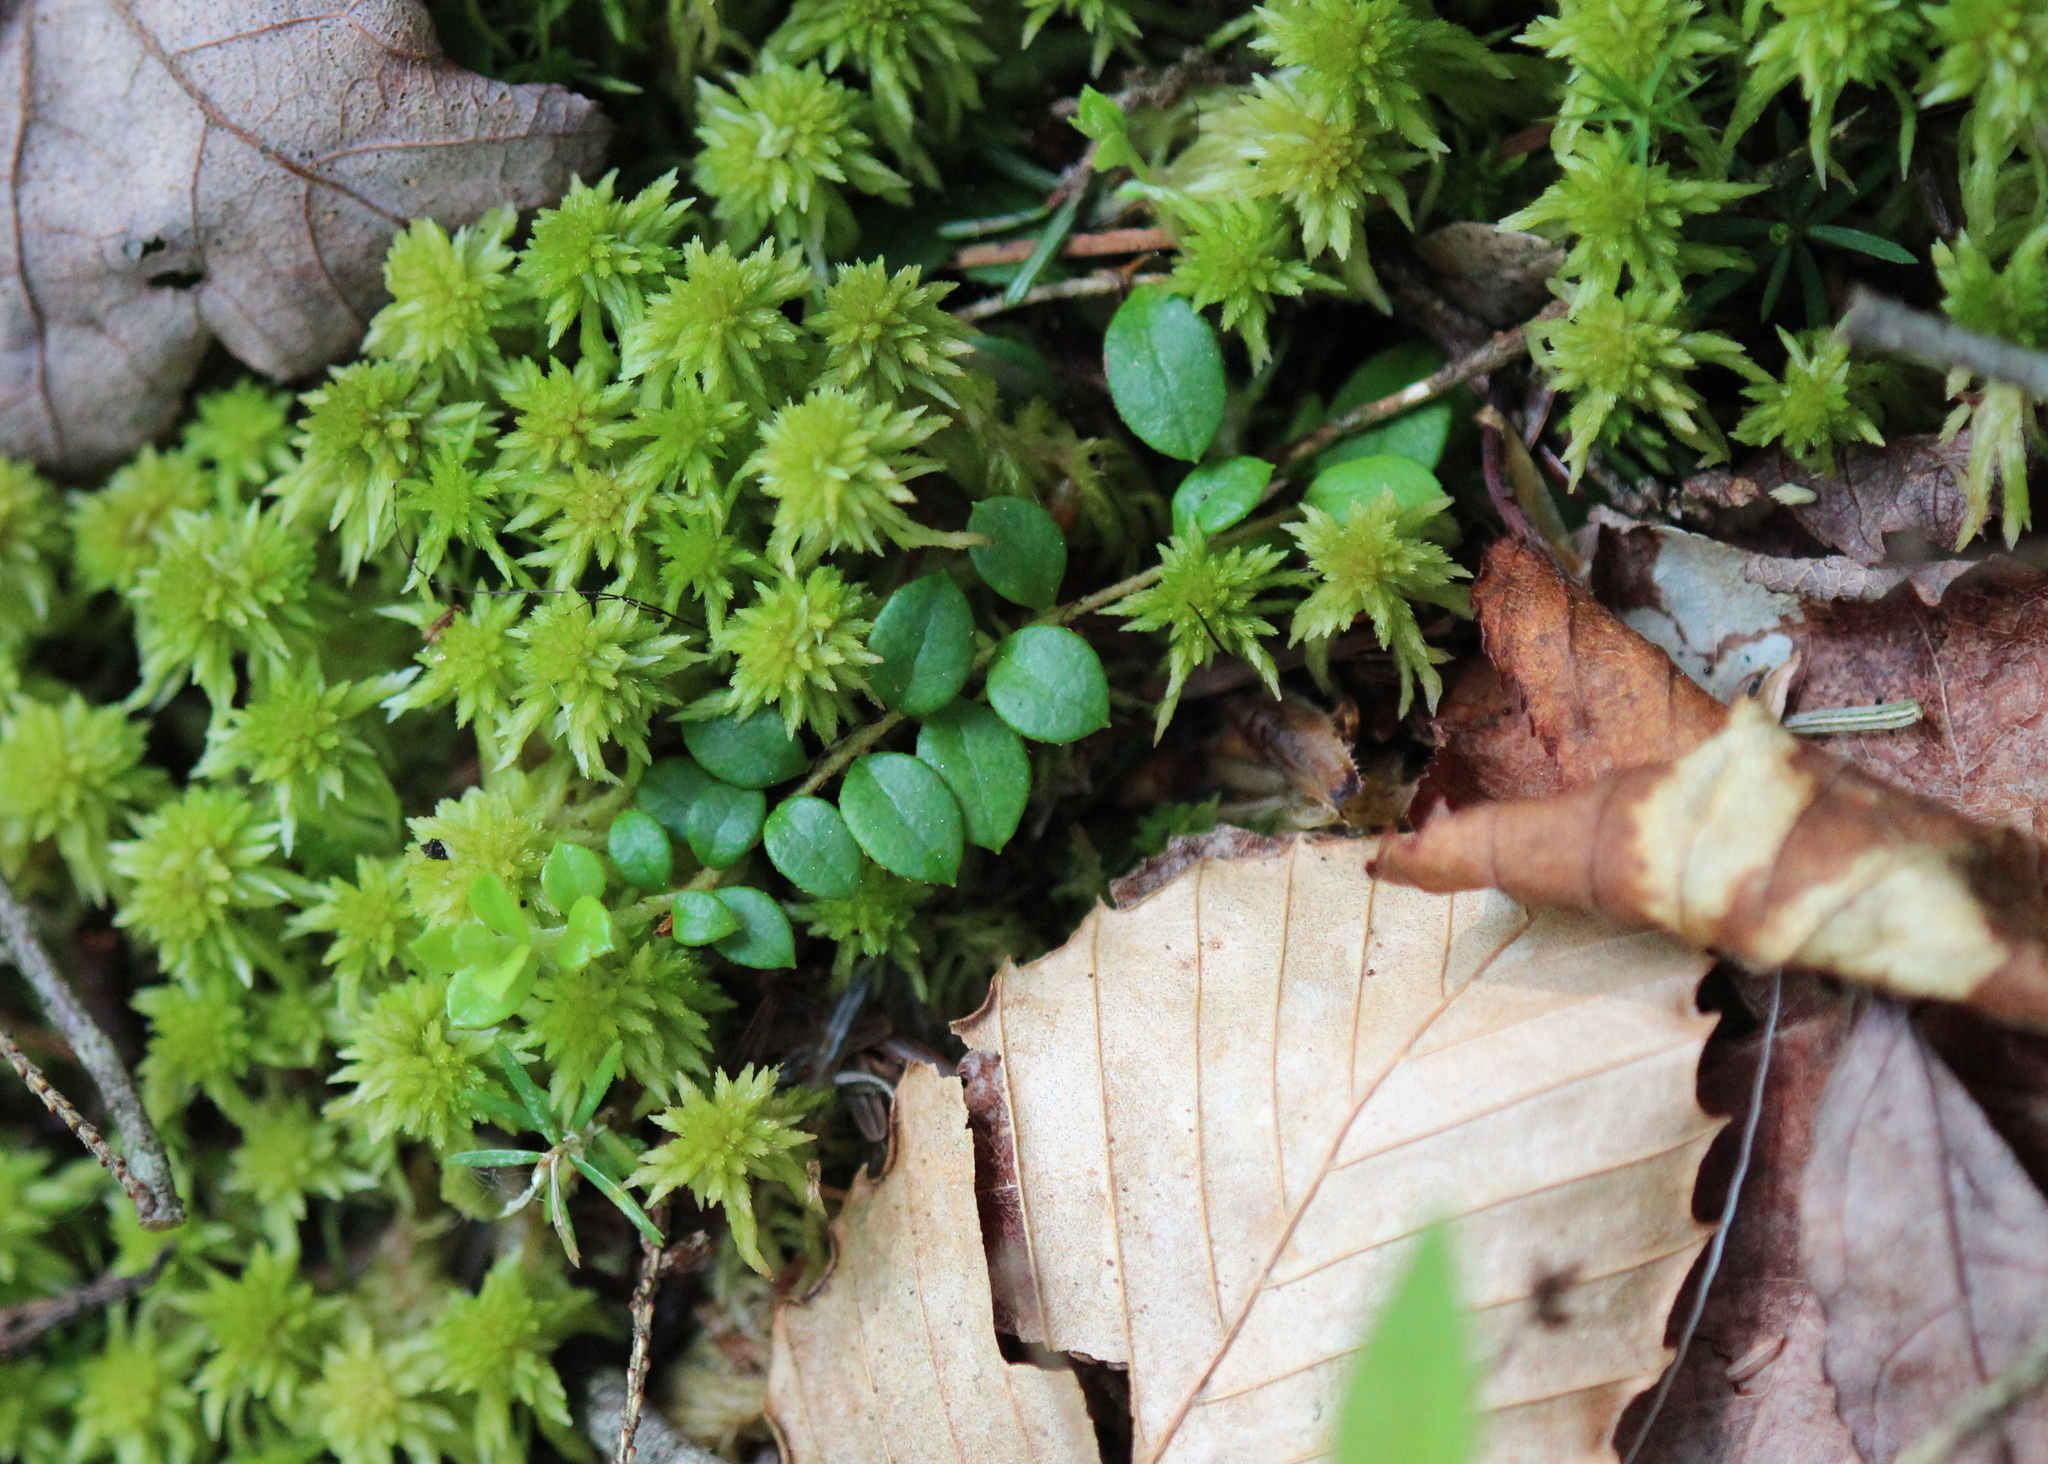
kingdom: Plantae
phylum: Tracheophyta
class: Magnoliopsida
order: Ericales
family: Ericaceae
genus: Gaultheria
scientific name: Gaultheria hispidula
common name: Cancer wintergreen
